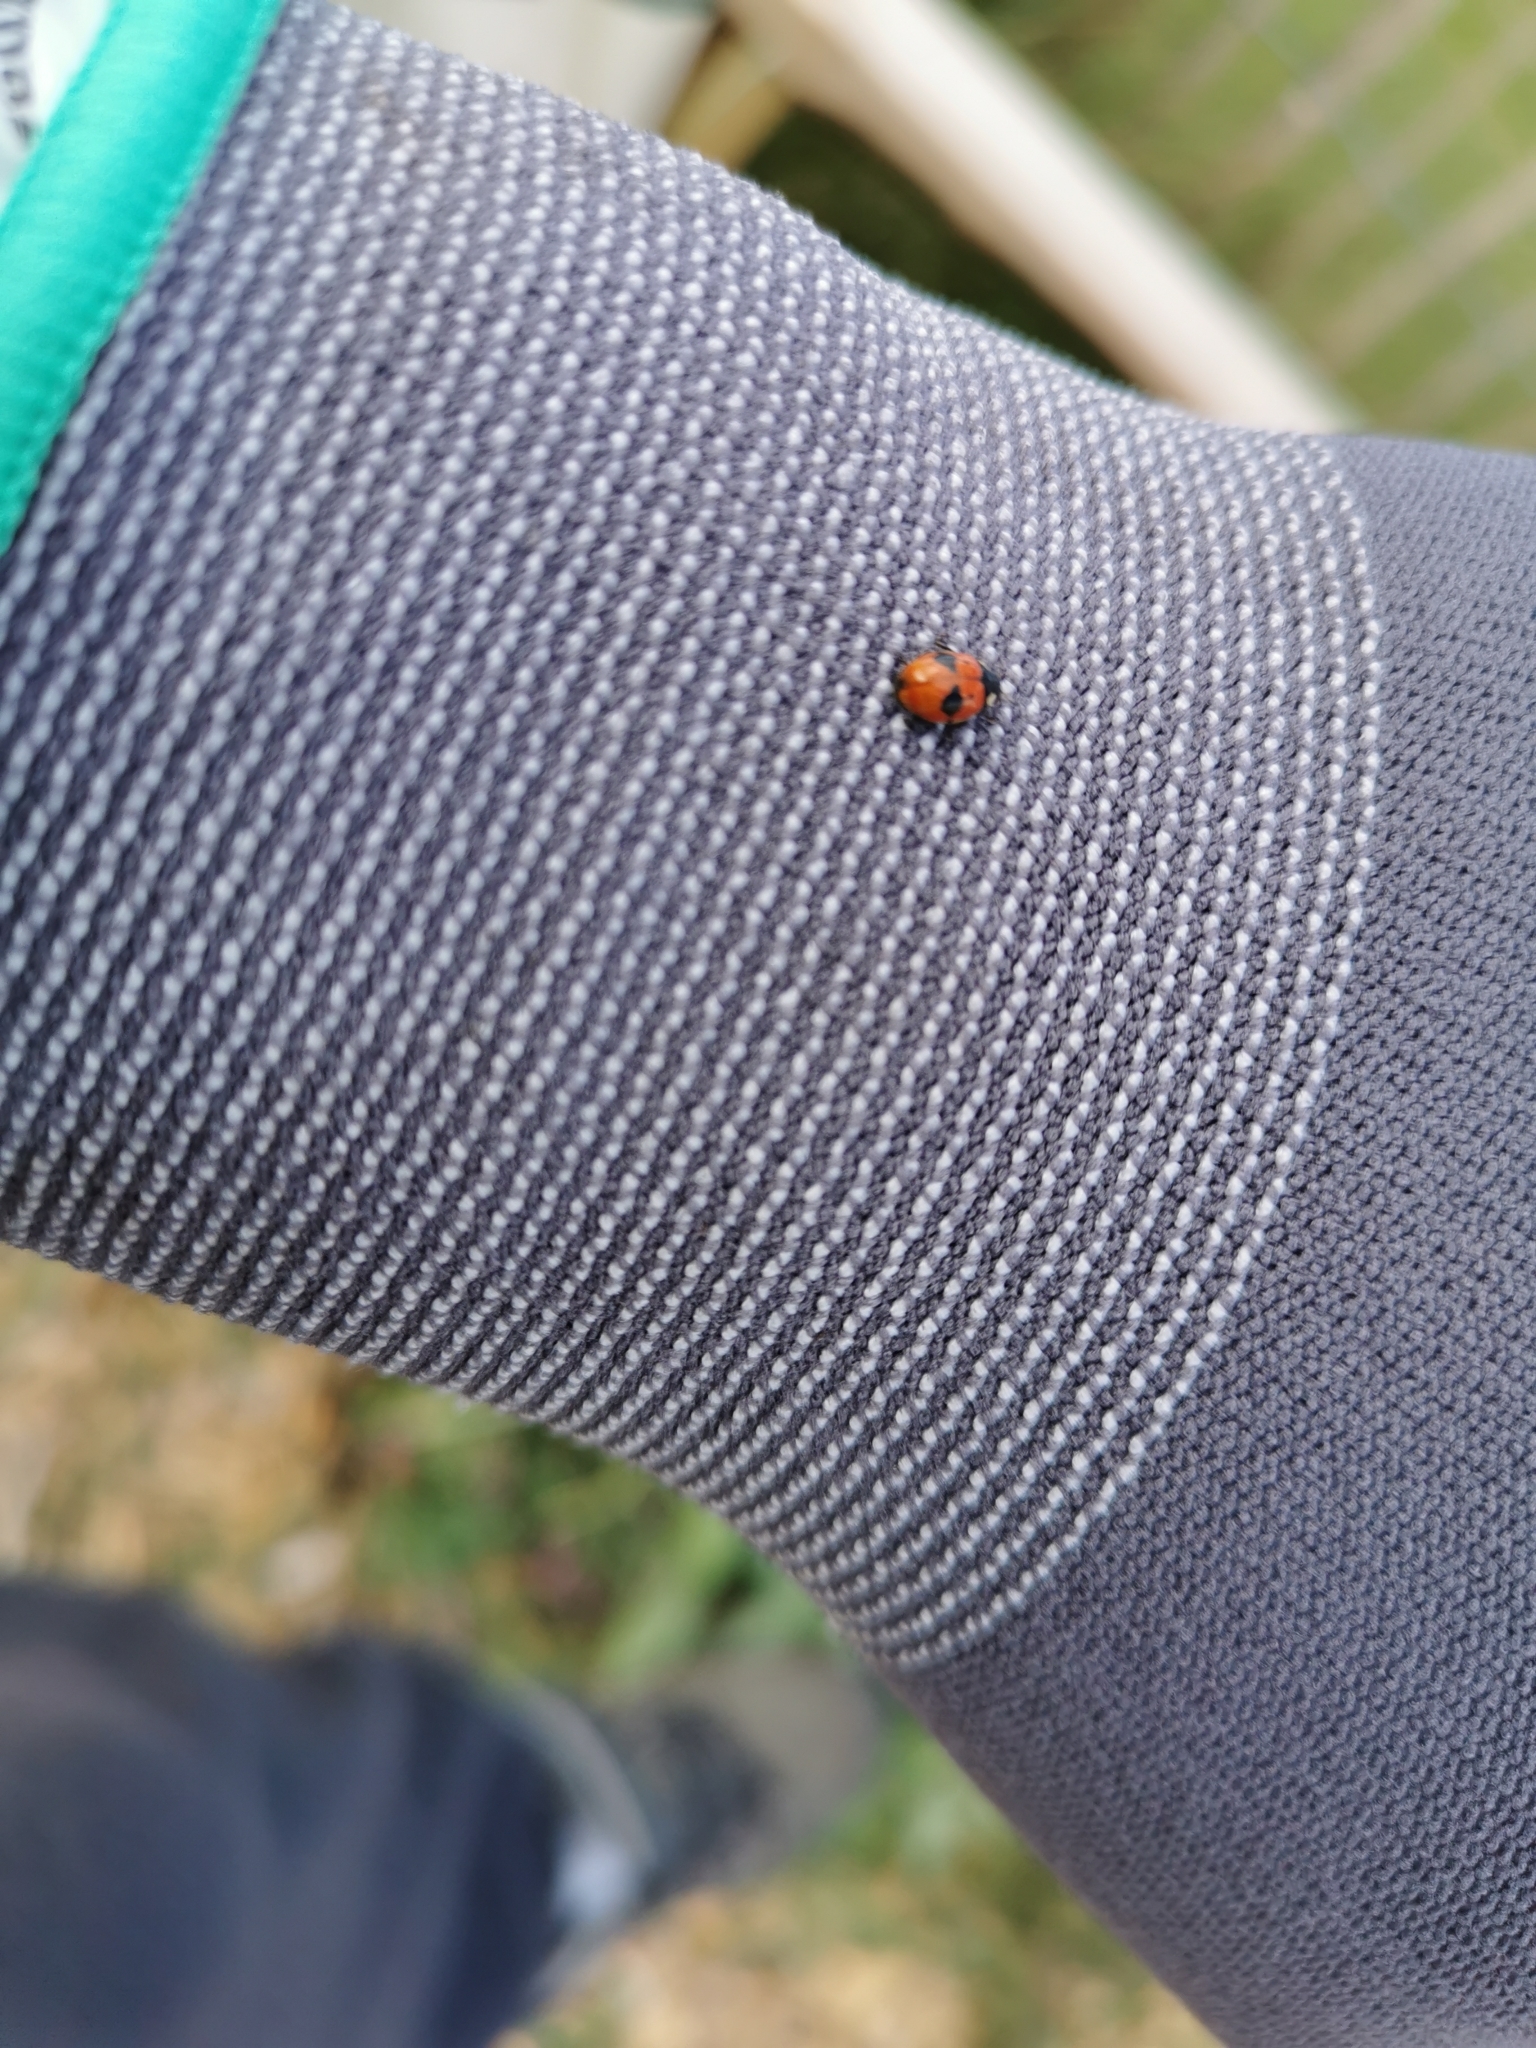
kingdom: Animalia
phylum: Arthropoda
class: Insecta
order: Coleoptera
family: Coccinellidae
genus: Adalia
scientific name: Adalia bipunctata
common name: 2-spot ladybird
